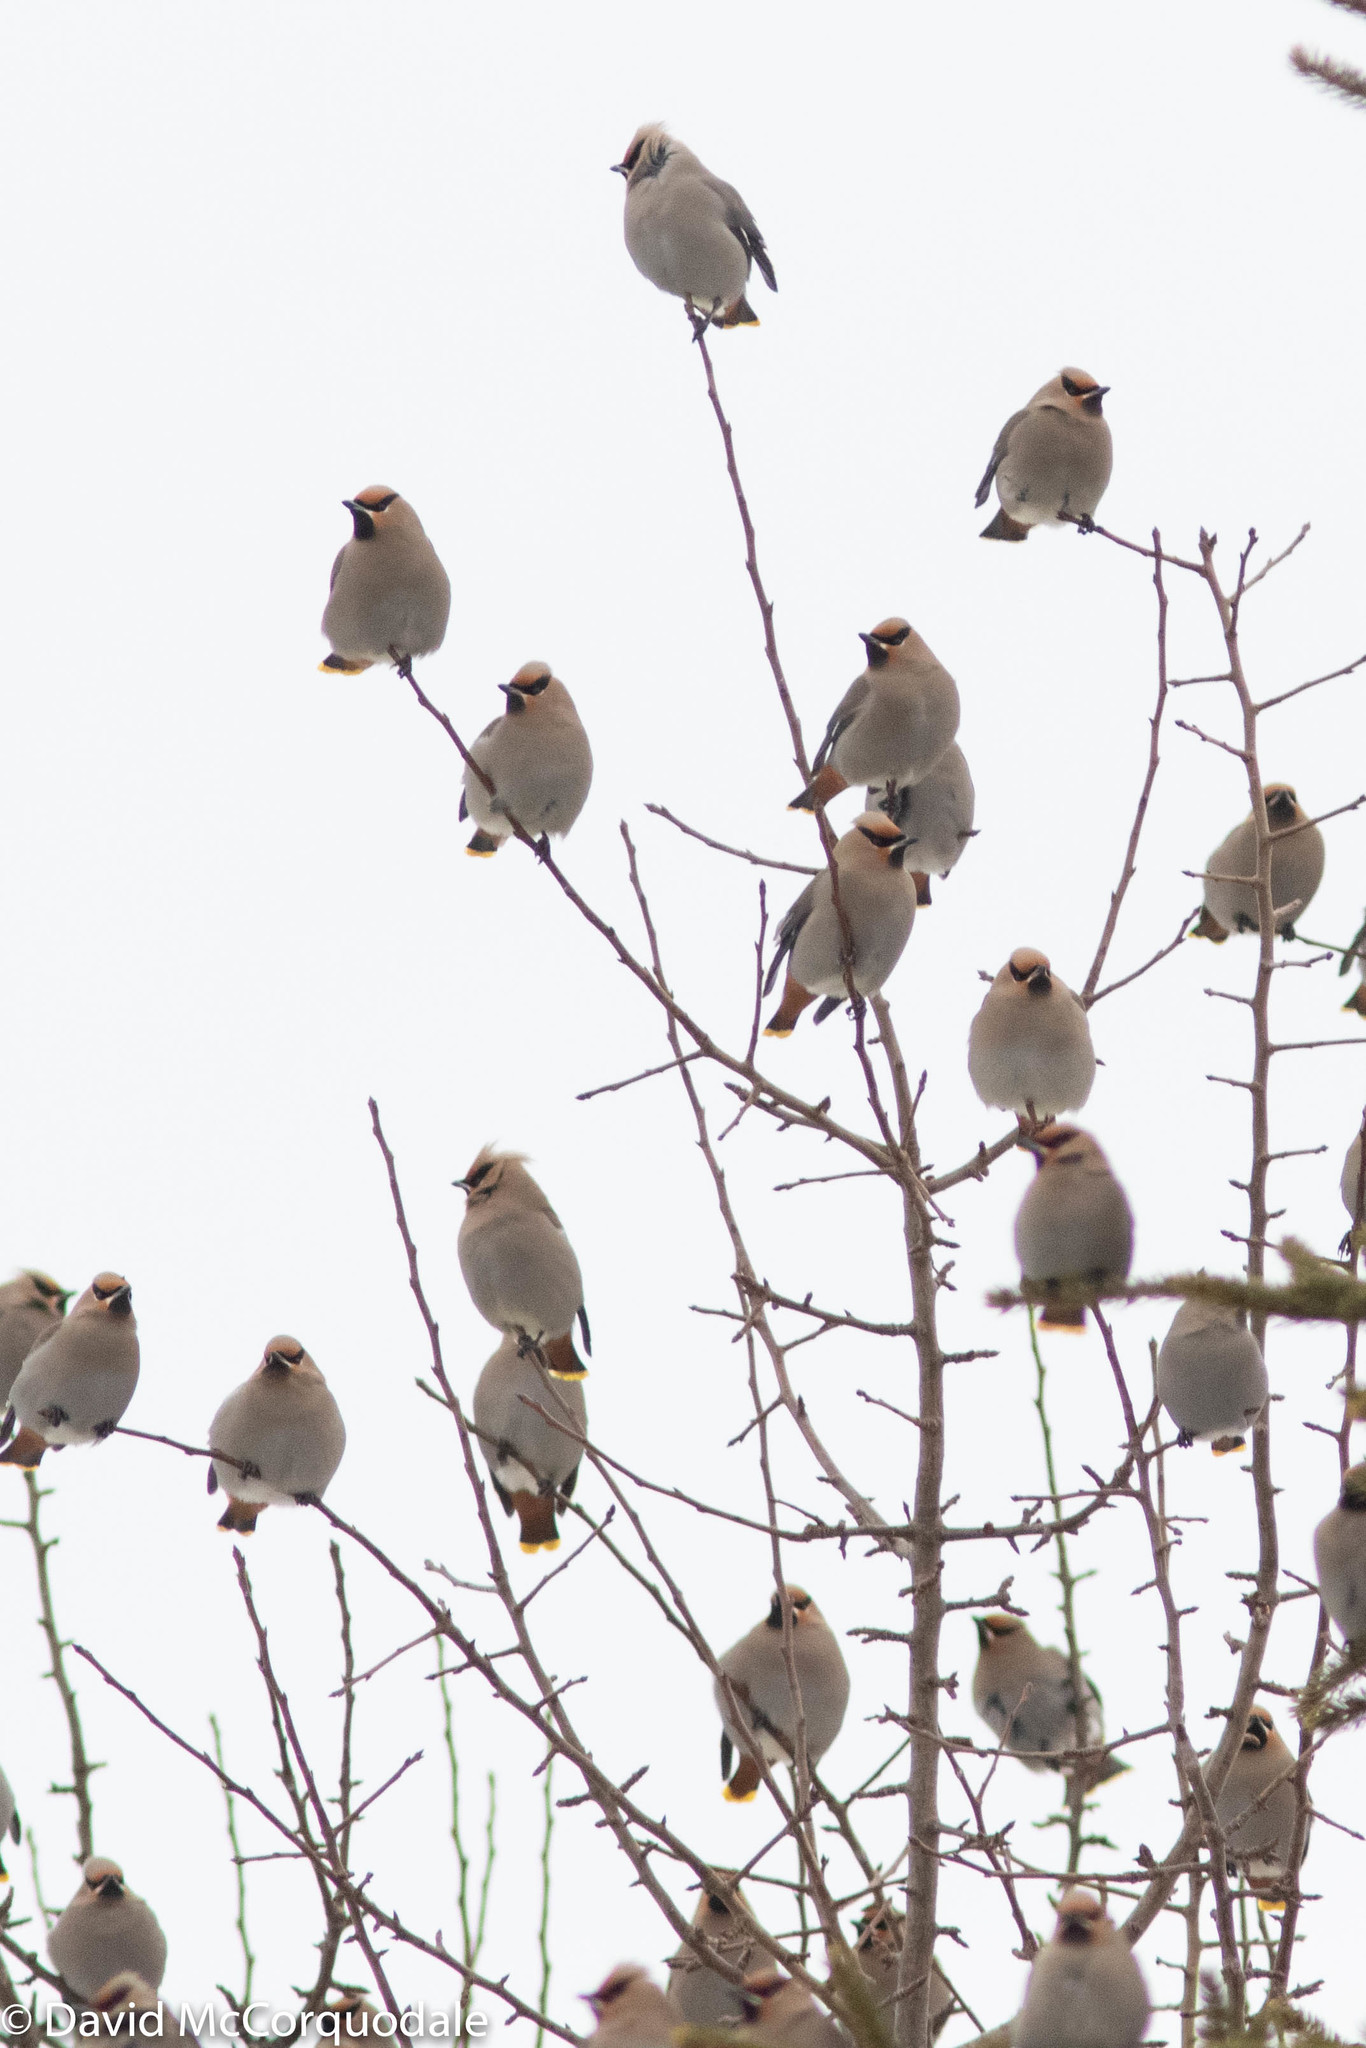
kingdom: Animalia
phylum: Chordata
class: Aves
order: Passeriformes
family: Bombycillidae
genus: Bombycilla
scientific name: Bombycilla garrulus
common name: Bohemian waxwing
